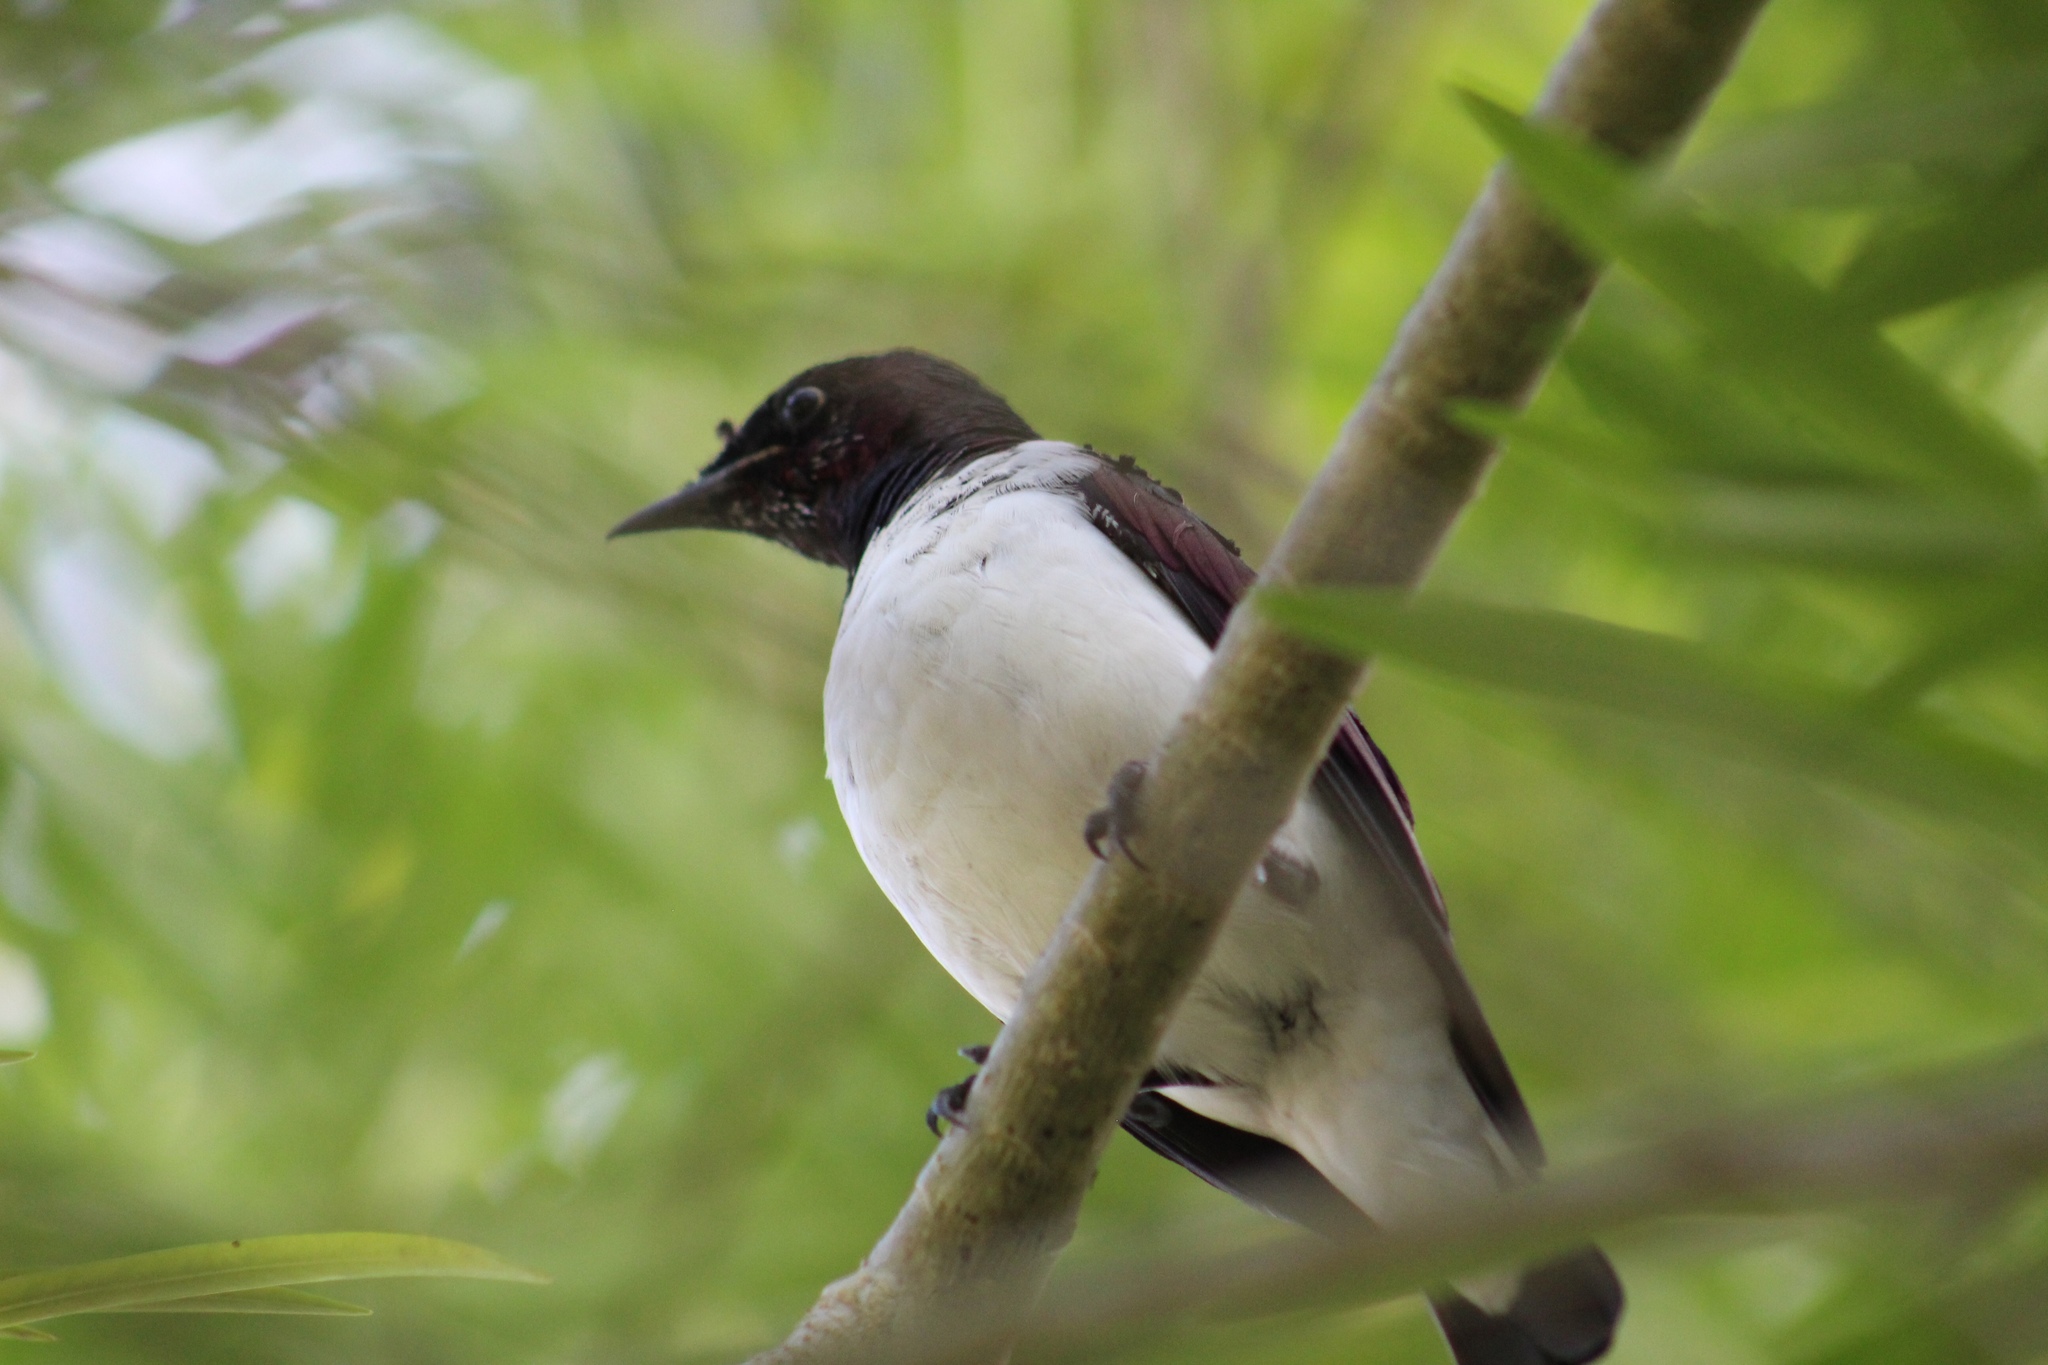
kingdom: Animalia
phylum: Chordata
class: Aves
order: Passeriformes
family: Sturnidae
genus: Cinnyricinclus
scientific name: Cinnyricinclus leucogaster
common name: Violet-backed starling
